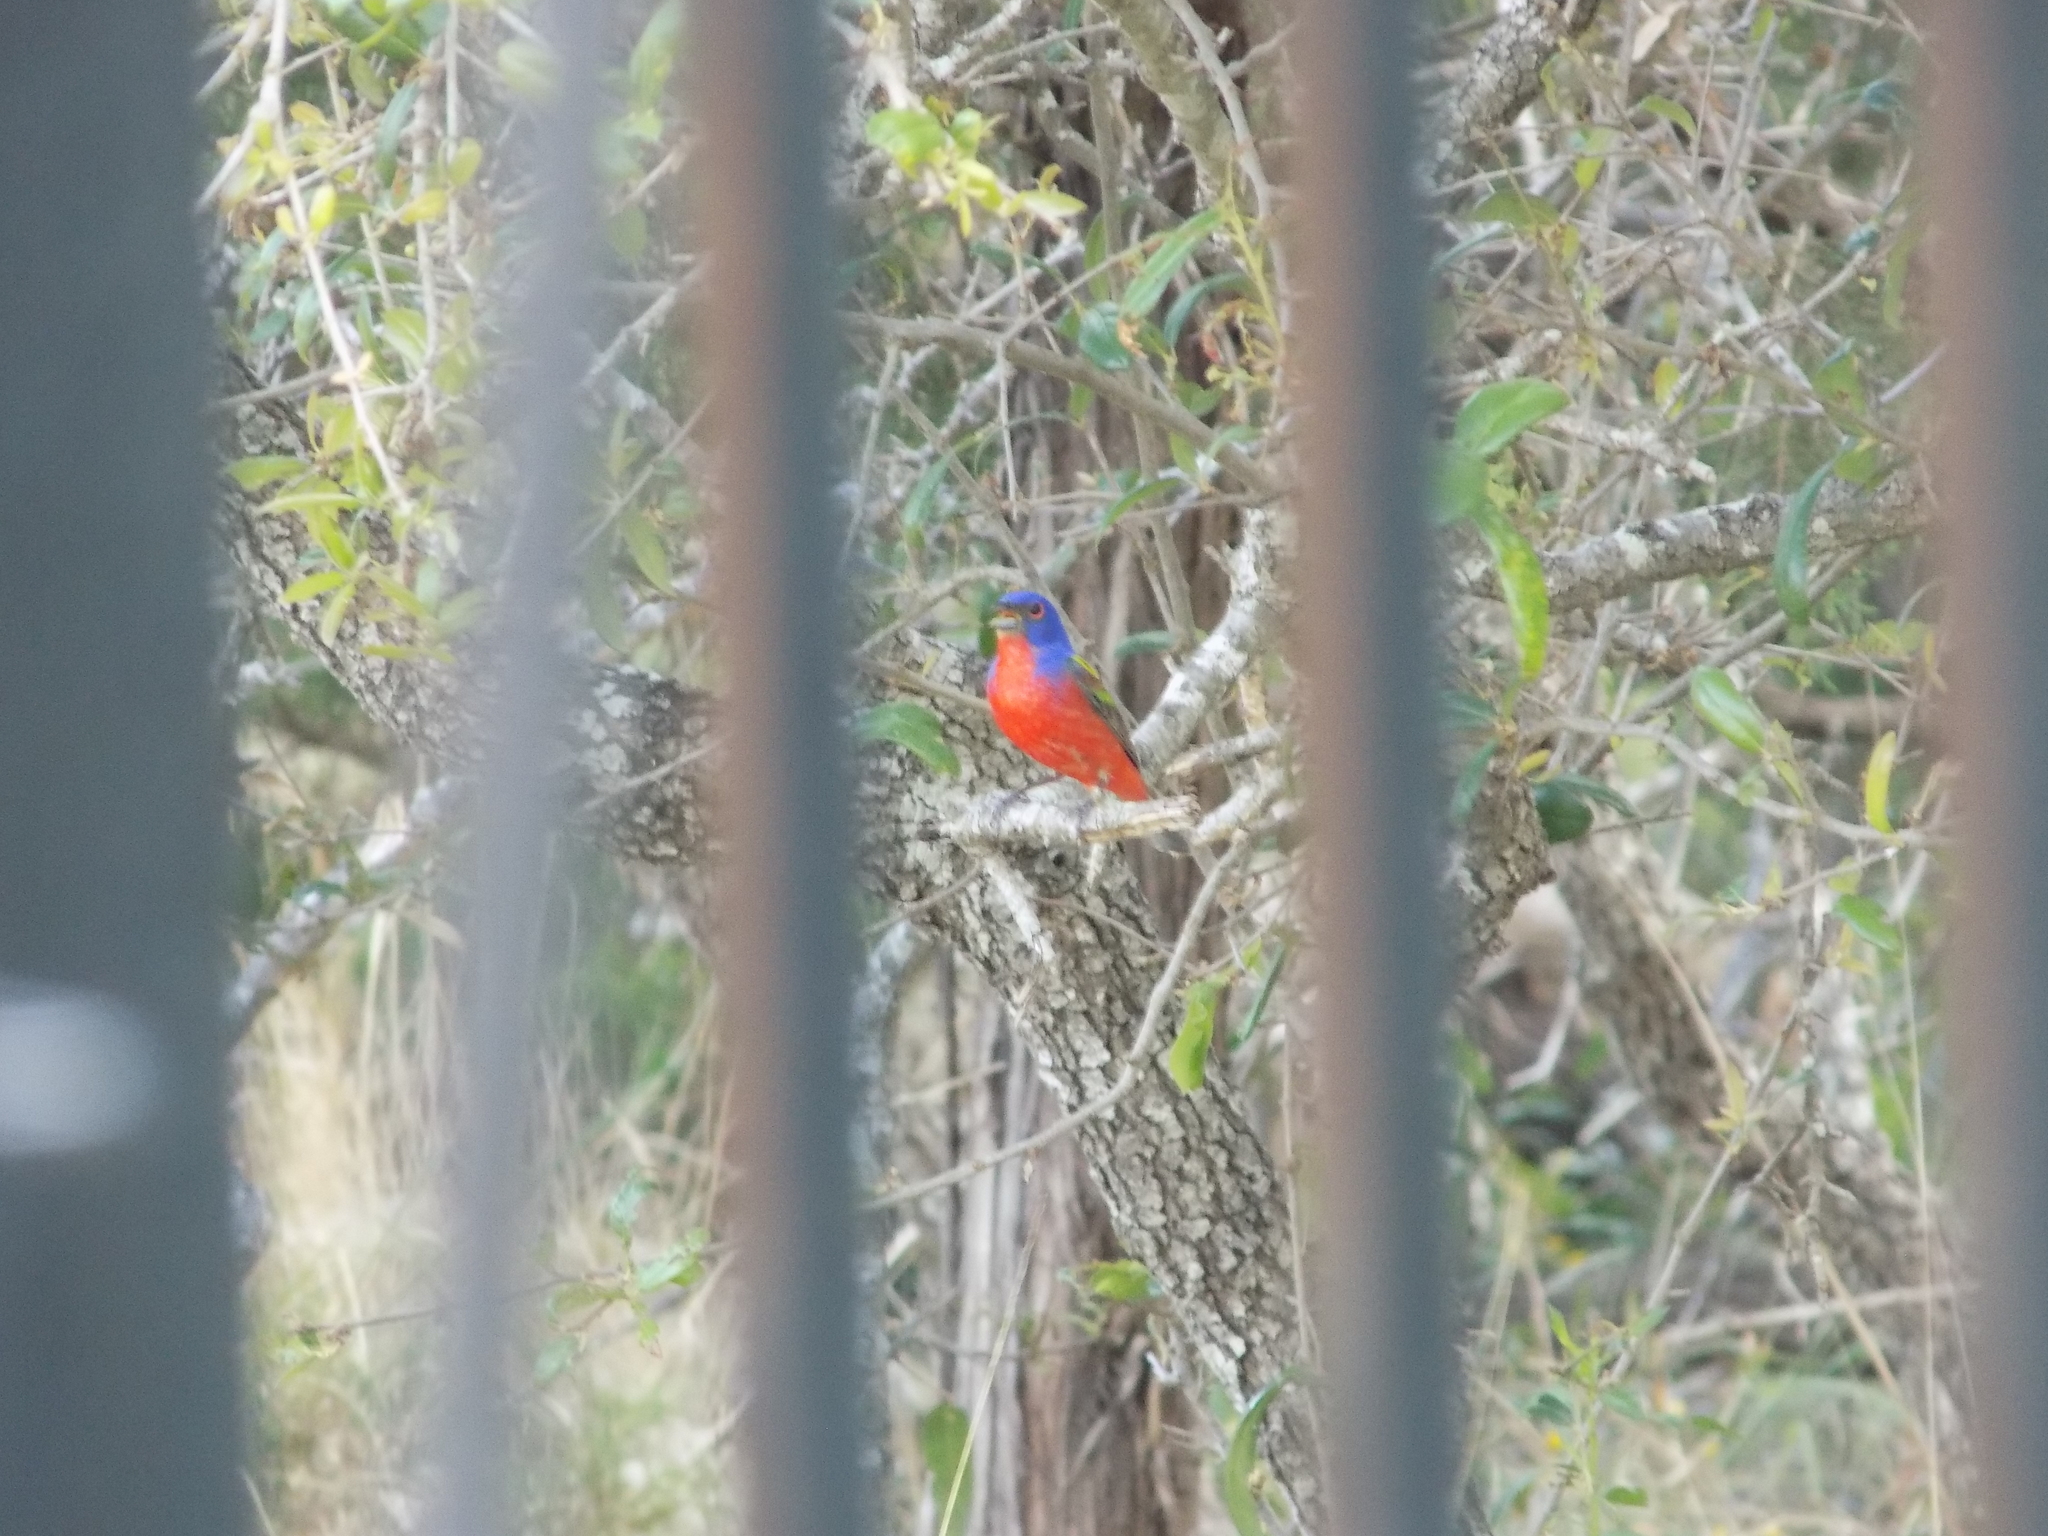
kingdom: Animalia
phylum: Chordata
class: Aves
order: Passeriformes
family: Cardinalidae
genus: Passerina
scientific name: Passerina ciris
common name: Painted bunting
